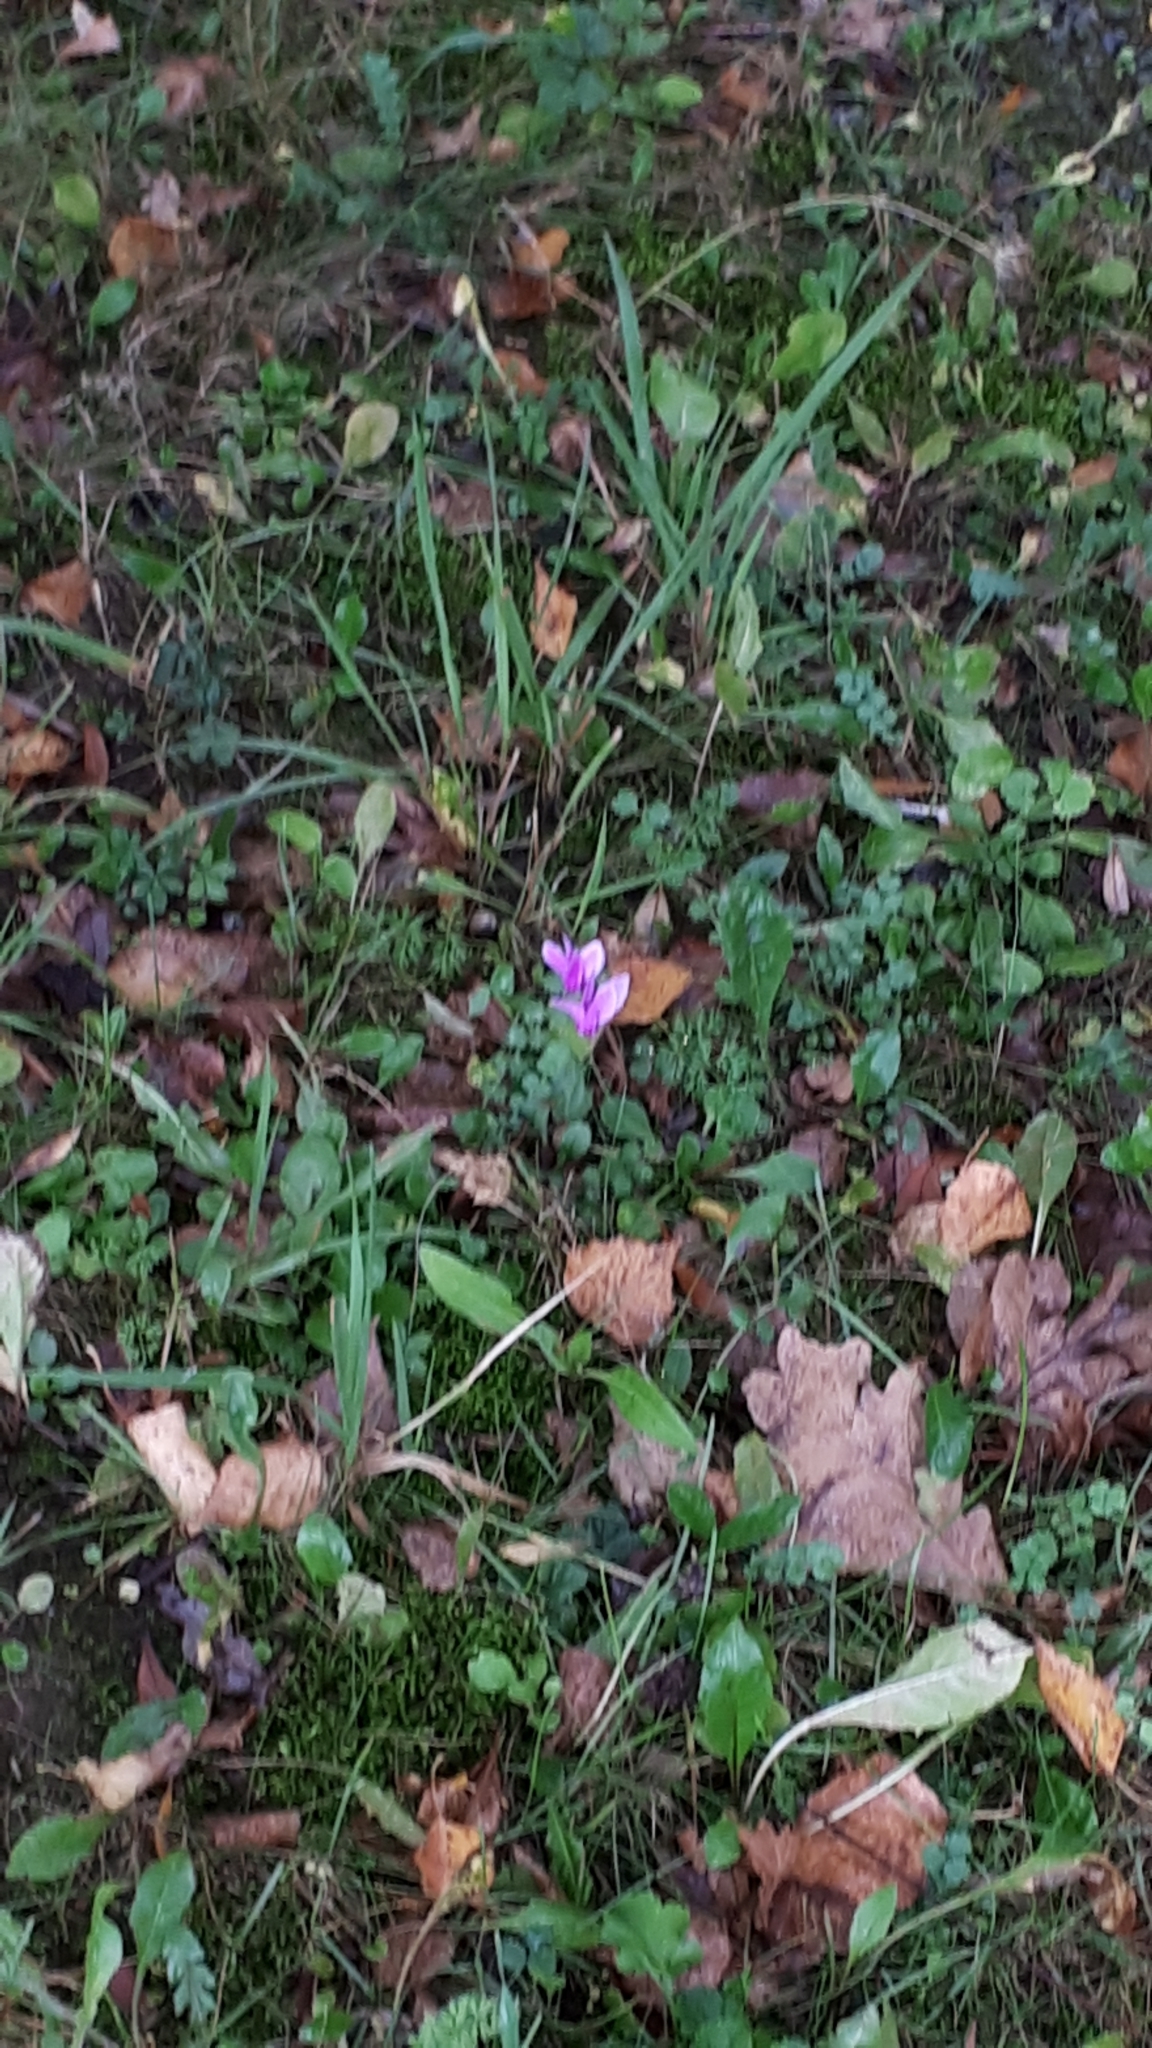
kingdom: Plantae
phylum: Tracheophyta
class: Magnoliopsida
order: Ericales
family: Primulaceae
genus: Cyclamen
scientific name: Cyclamen hederifolium
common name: Sowbread
